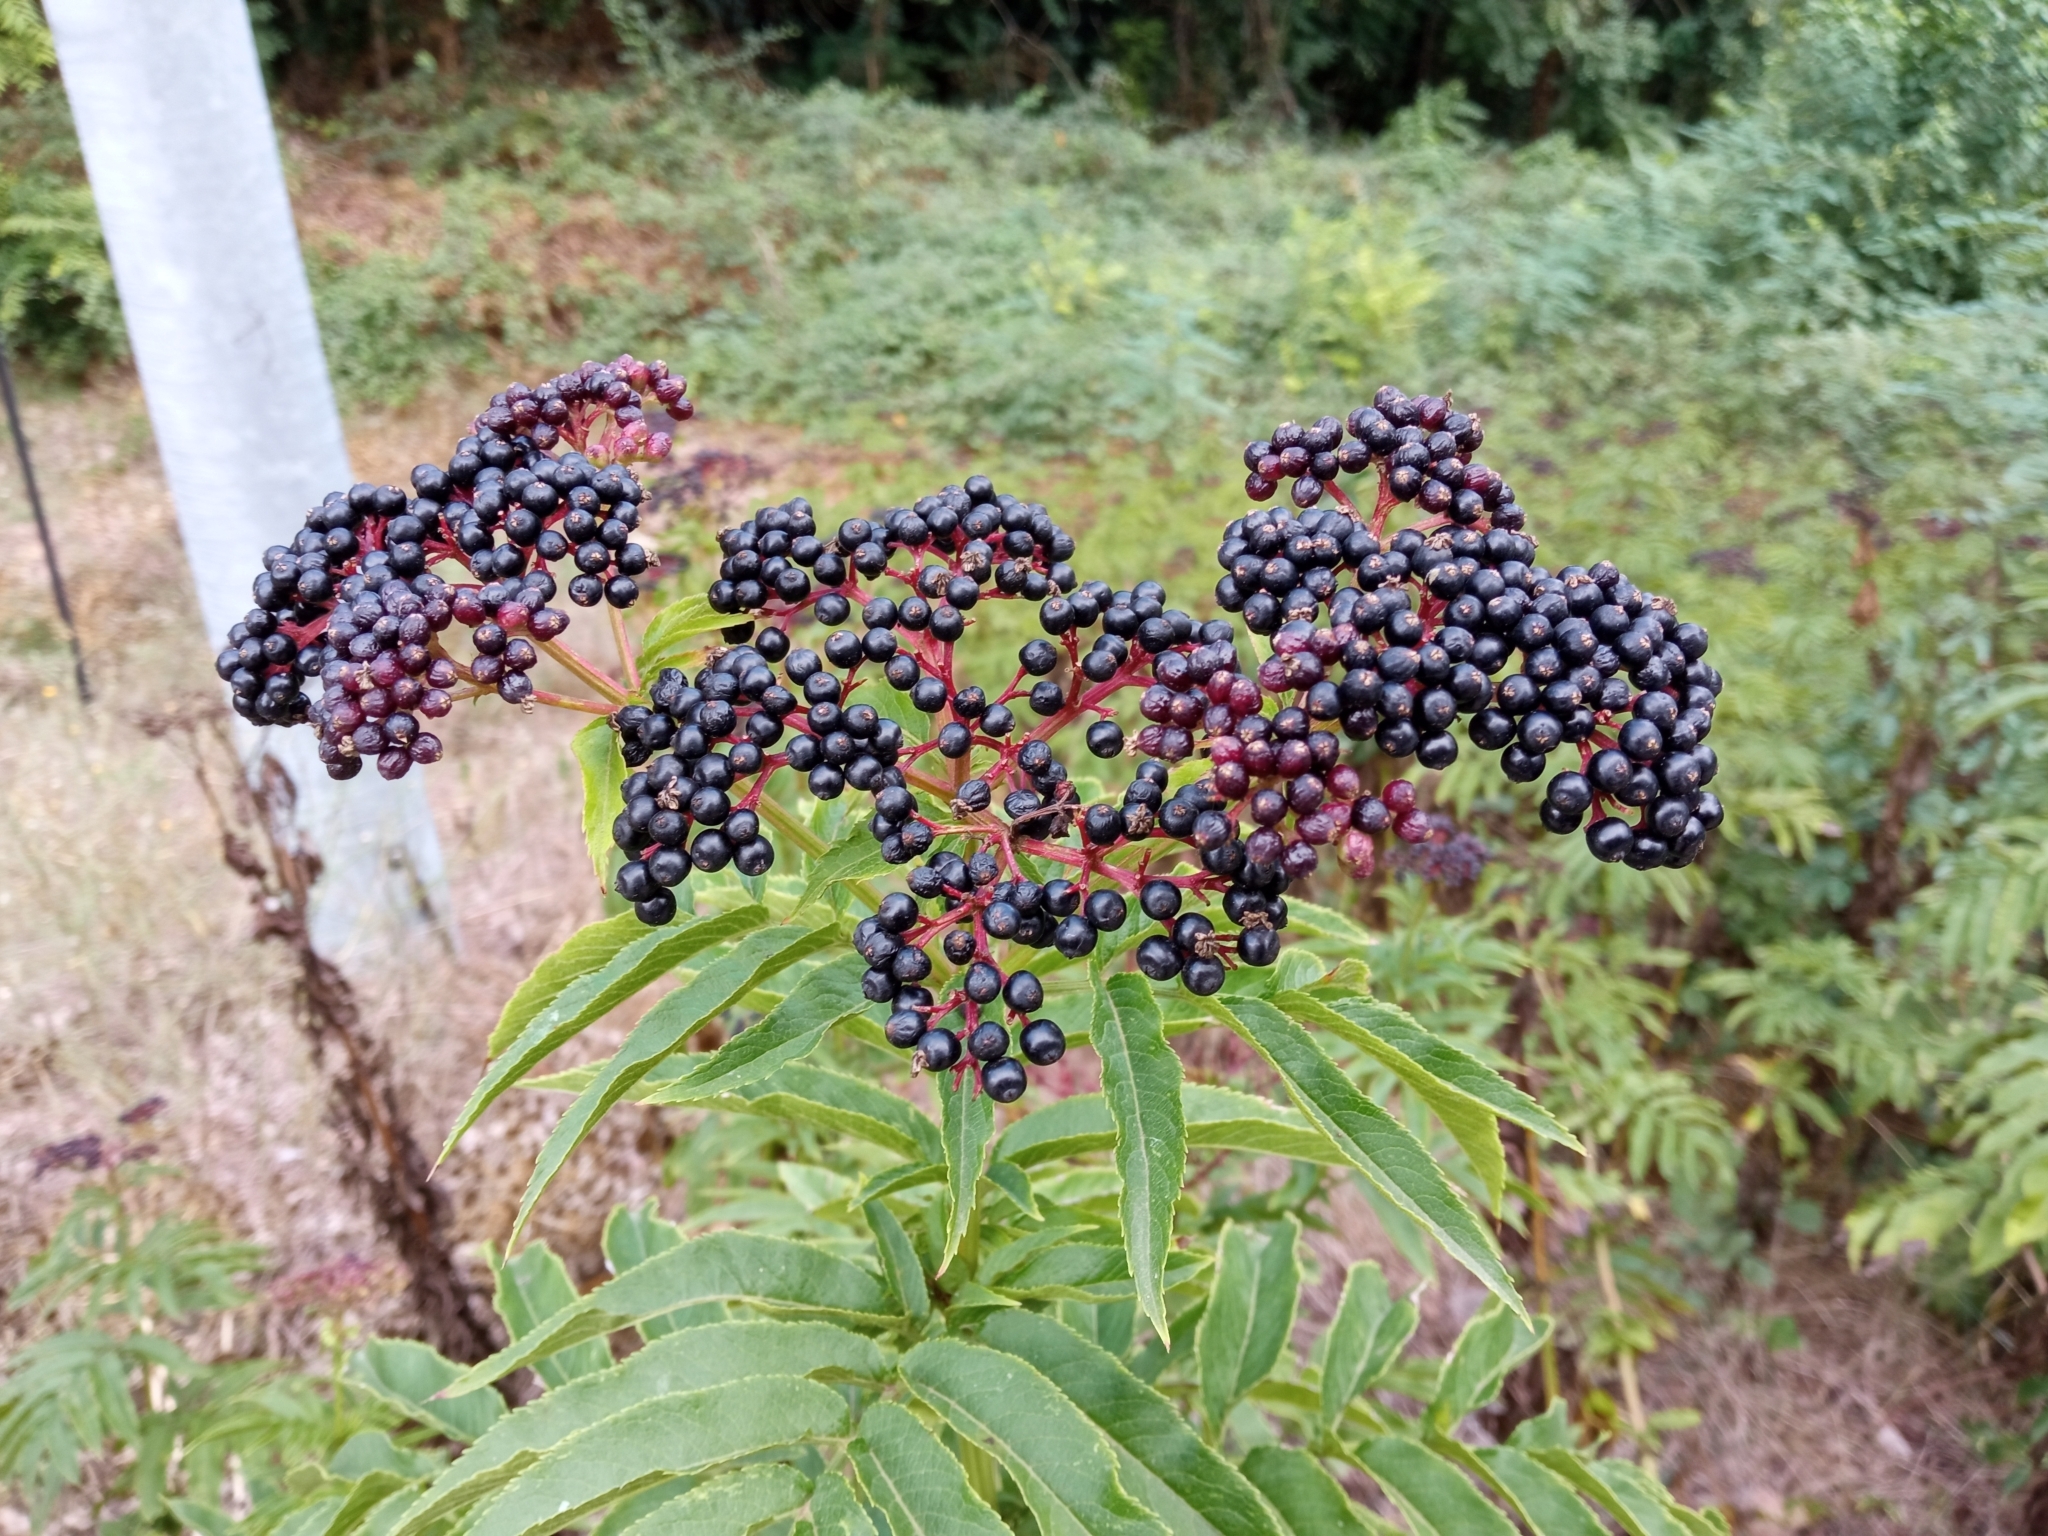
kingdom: Plantae
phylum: Tracheophyta
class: Magnoliopsida
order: Dipsacales
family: Viburnaceae
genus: Sambucus
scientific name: Sambucus ebulus
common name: Dwarf elder
